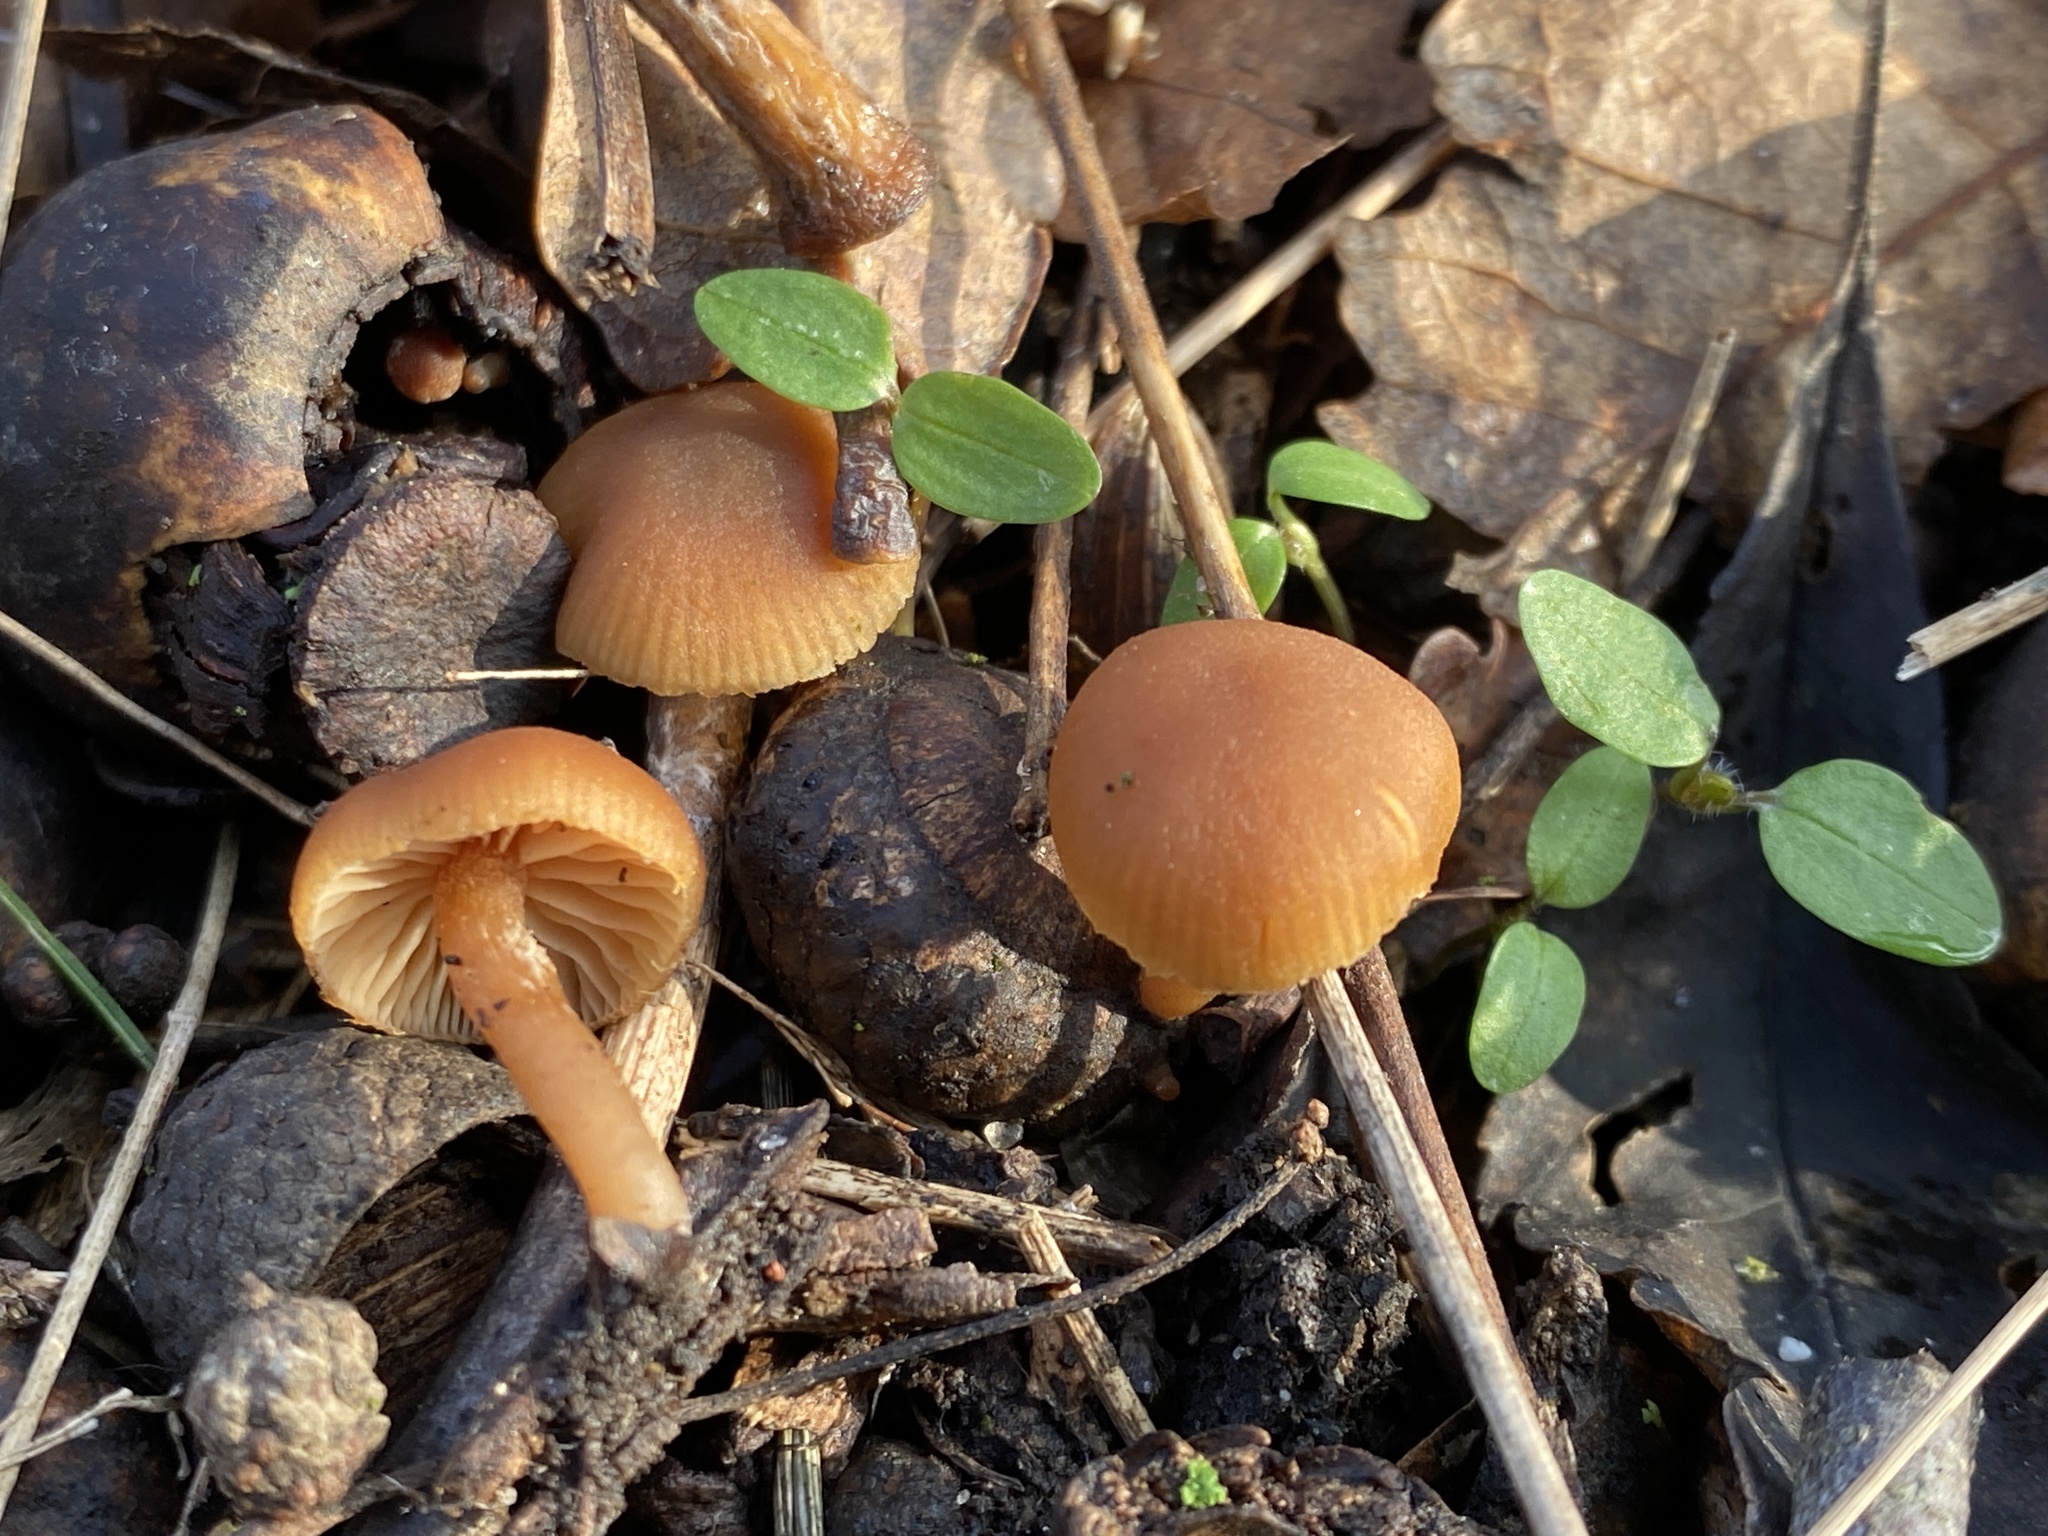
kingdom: Fungi
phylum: Basidiomycota
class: Agaricomycetes
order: Agaricales
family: Tubariaceae
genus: Tubaria
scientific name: Tubaria furfuracea
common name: Scurfy twiglet
